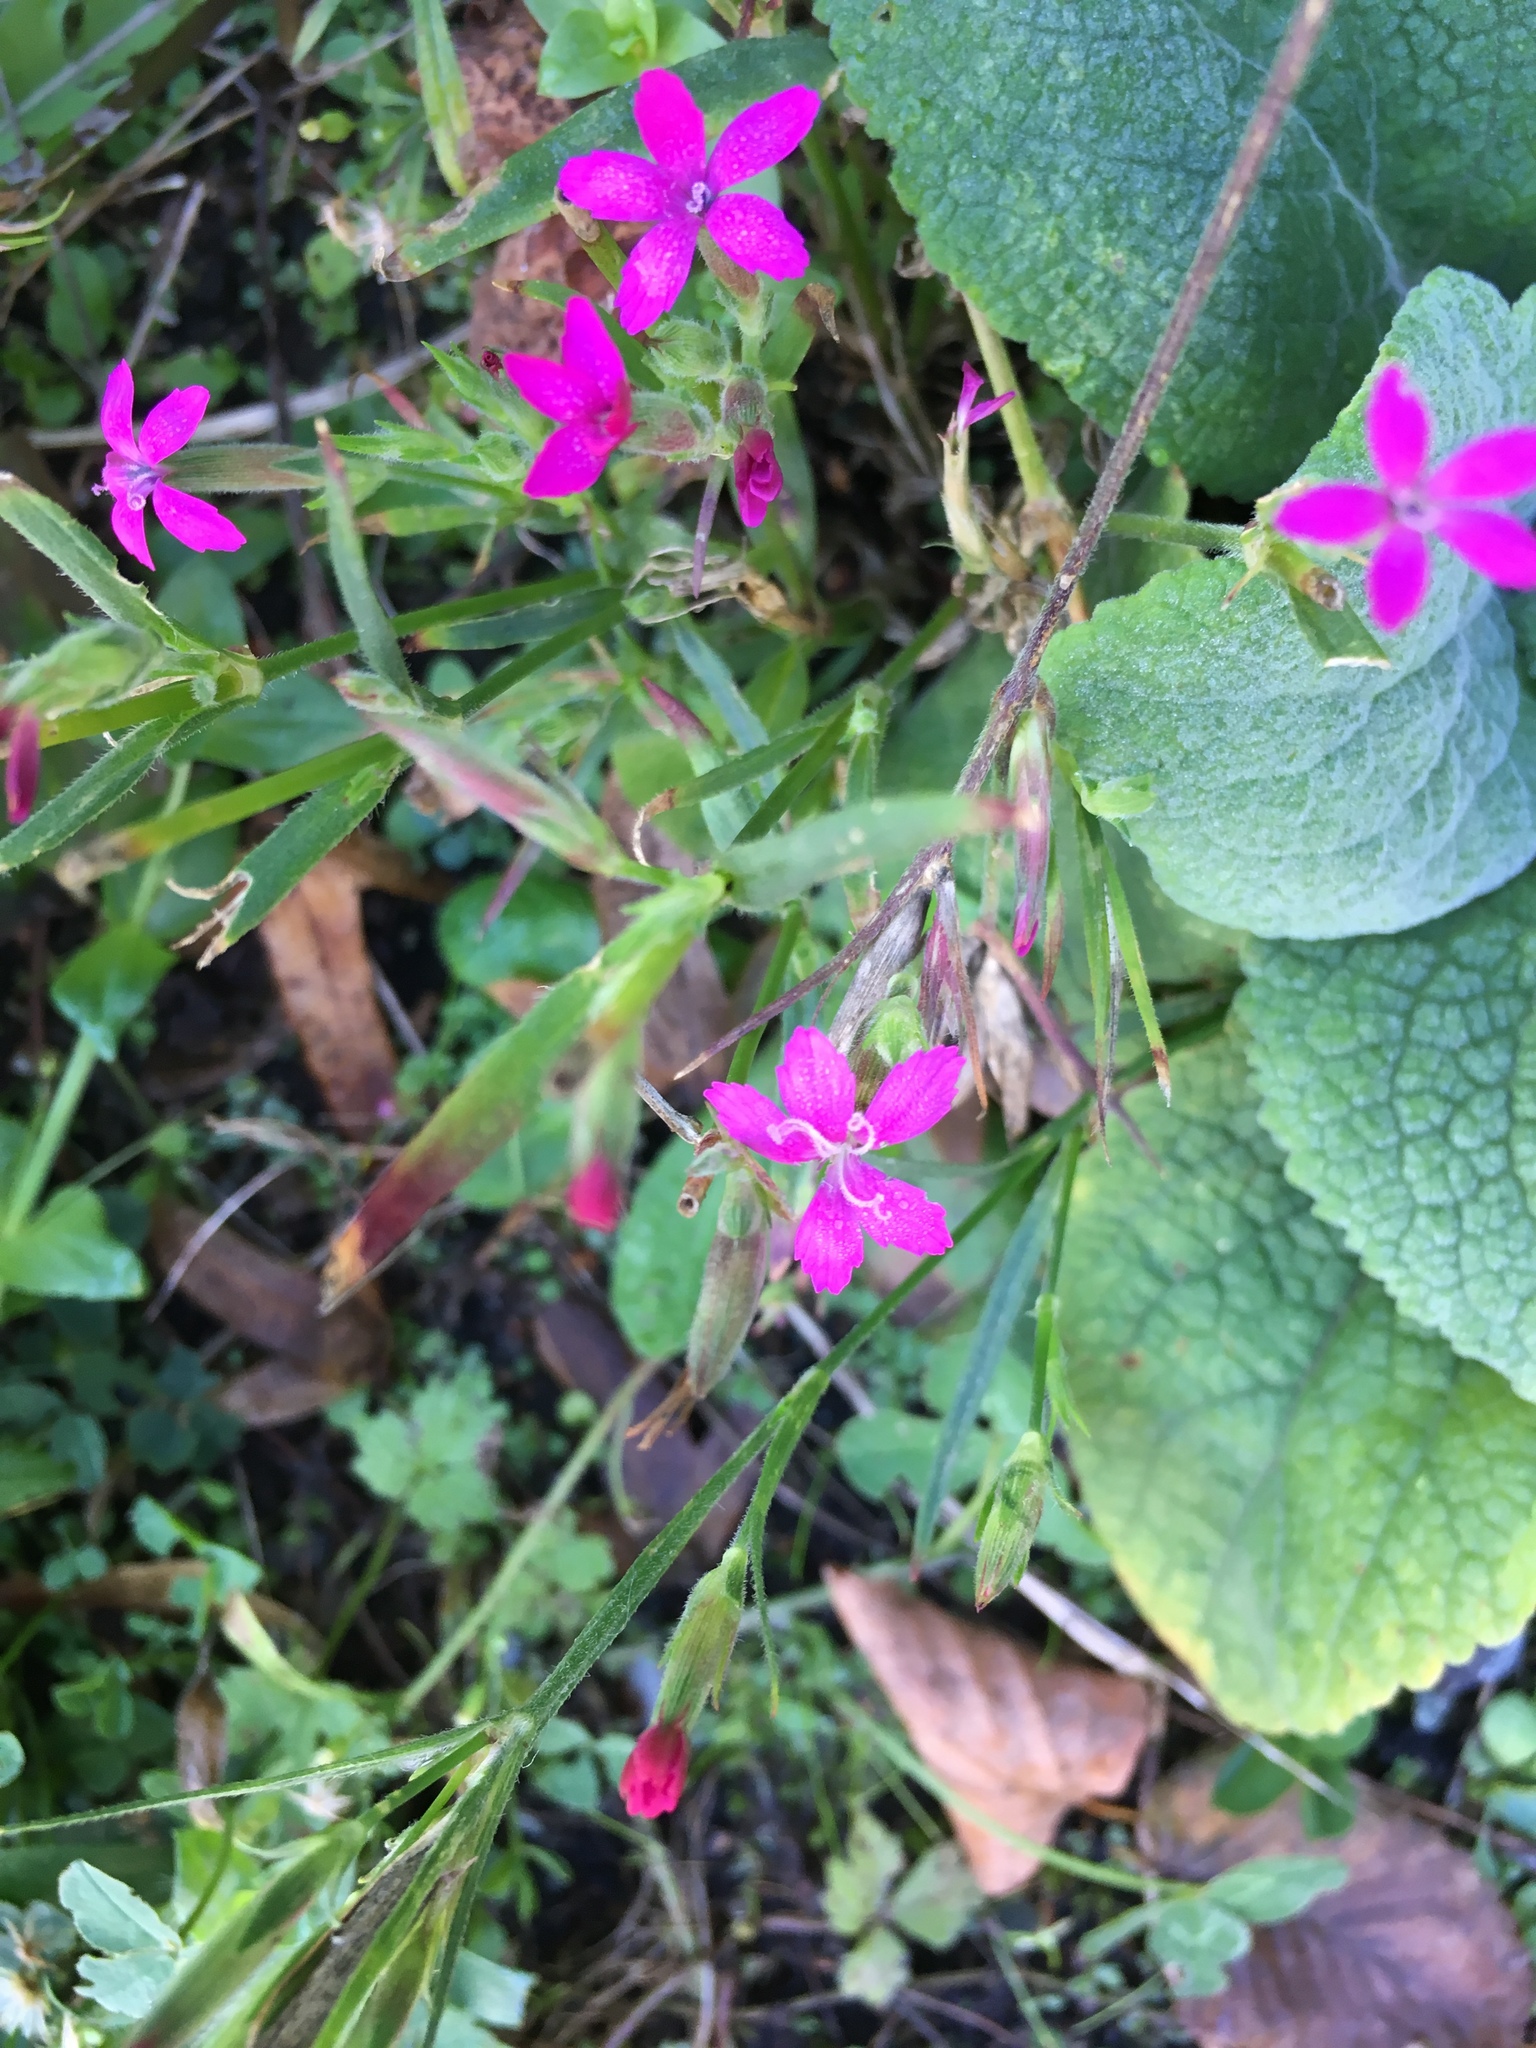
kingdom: Plantae
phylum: Tracheophyta
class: Magnoliopsida
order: Caryophyllales
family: Caryophyllaceae
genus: Dianthus
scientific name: Dianthus armeria
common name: Deptford pink
